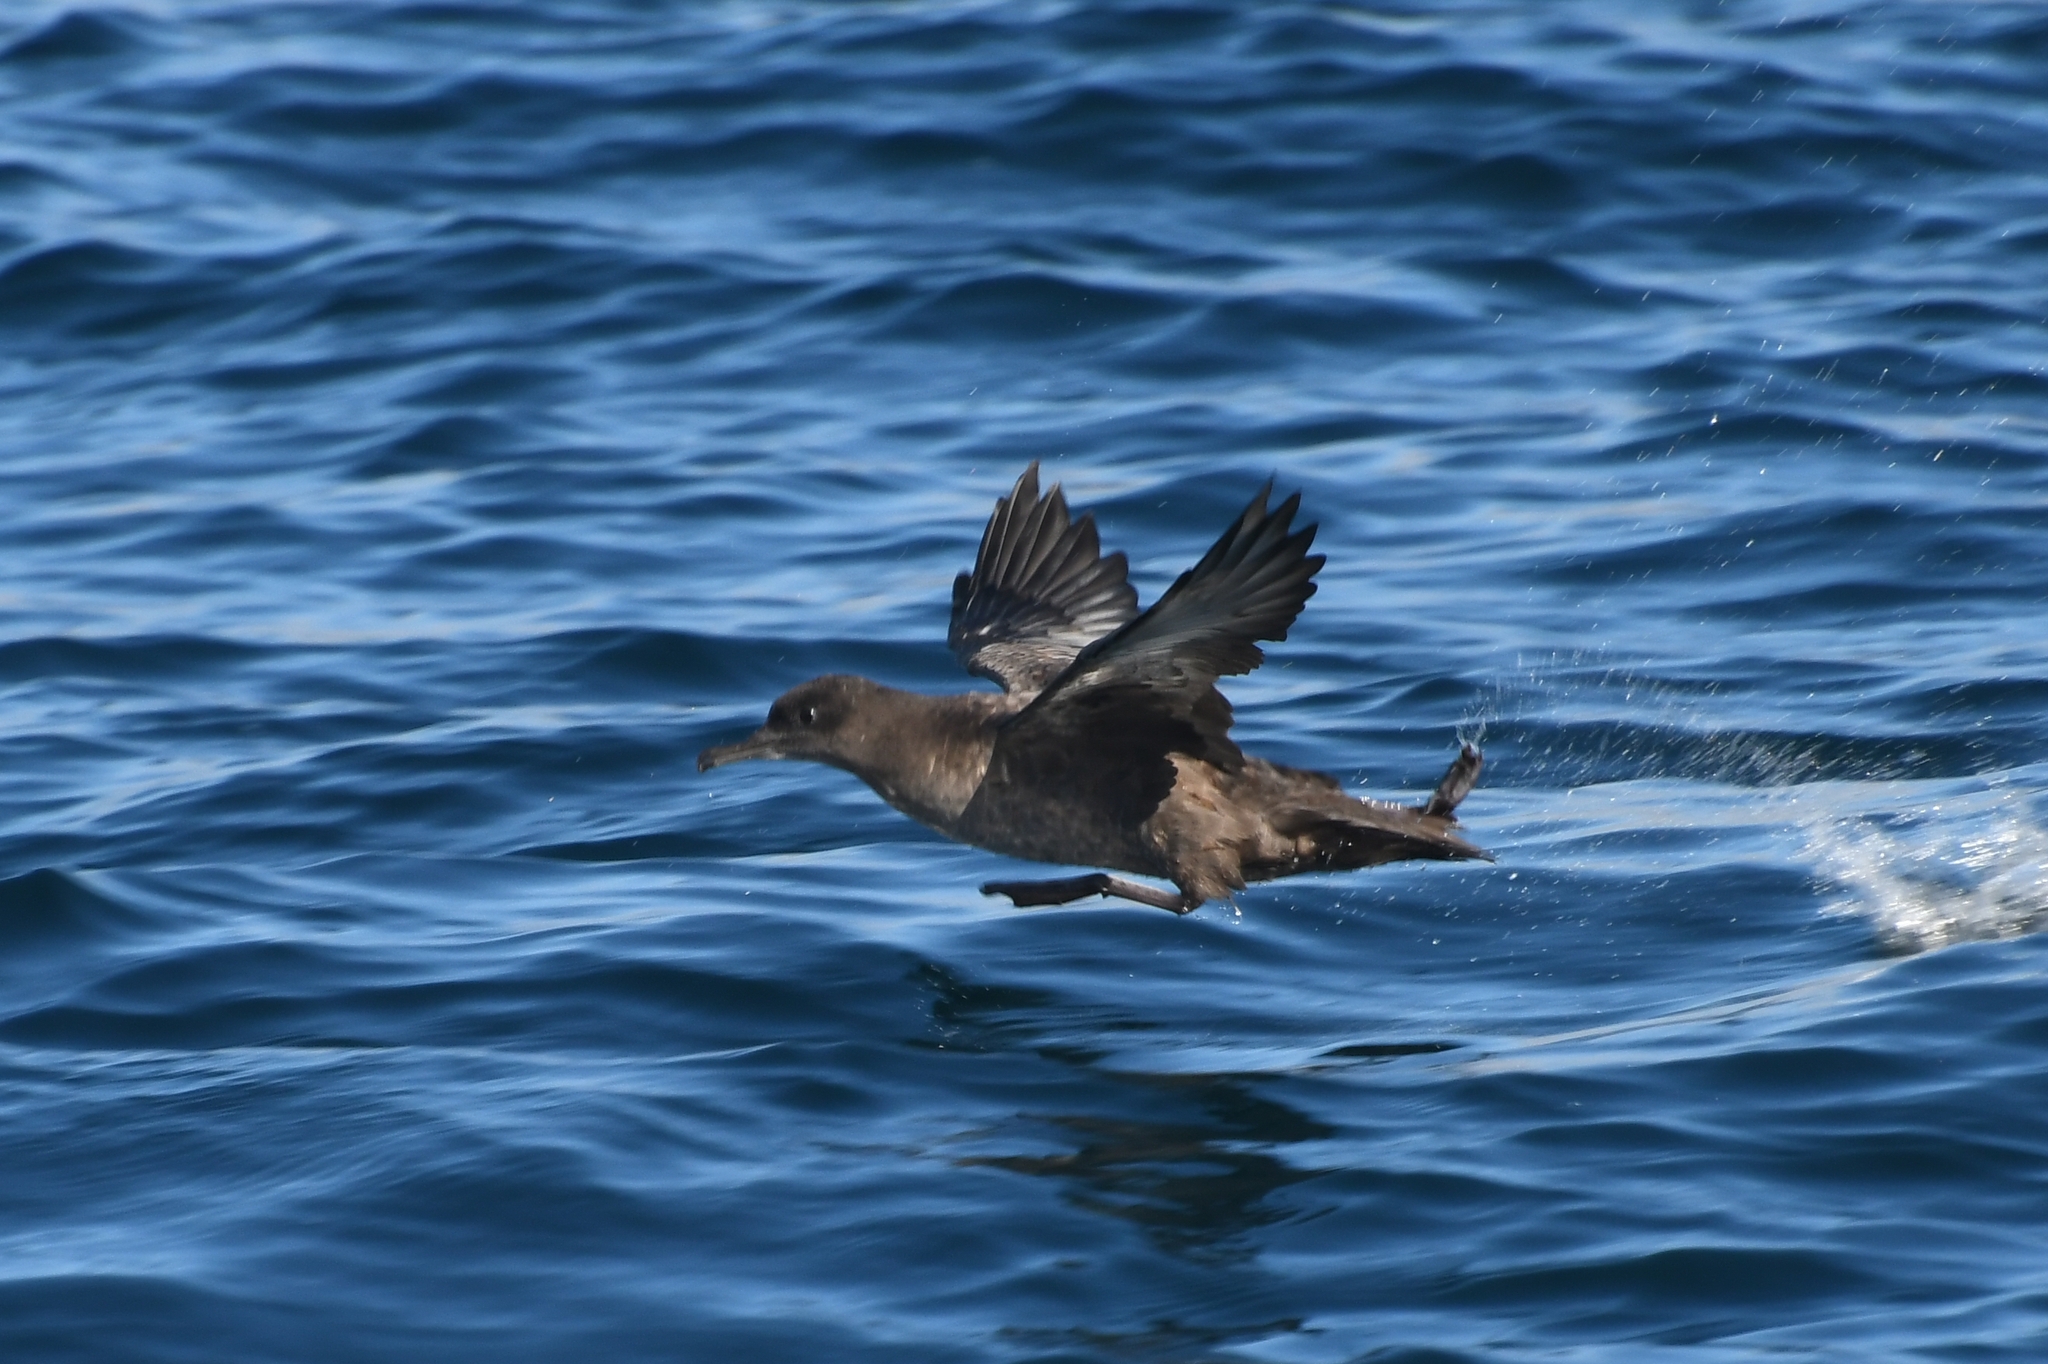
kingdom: Animalia
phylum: Chordata
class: Aves
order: Procellariiformes
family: Procellariidae
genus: Puffinus
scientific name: Puffinus griseus
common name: Sooty shearwater
